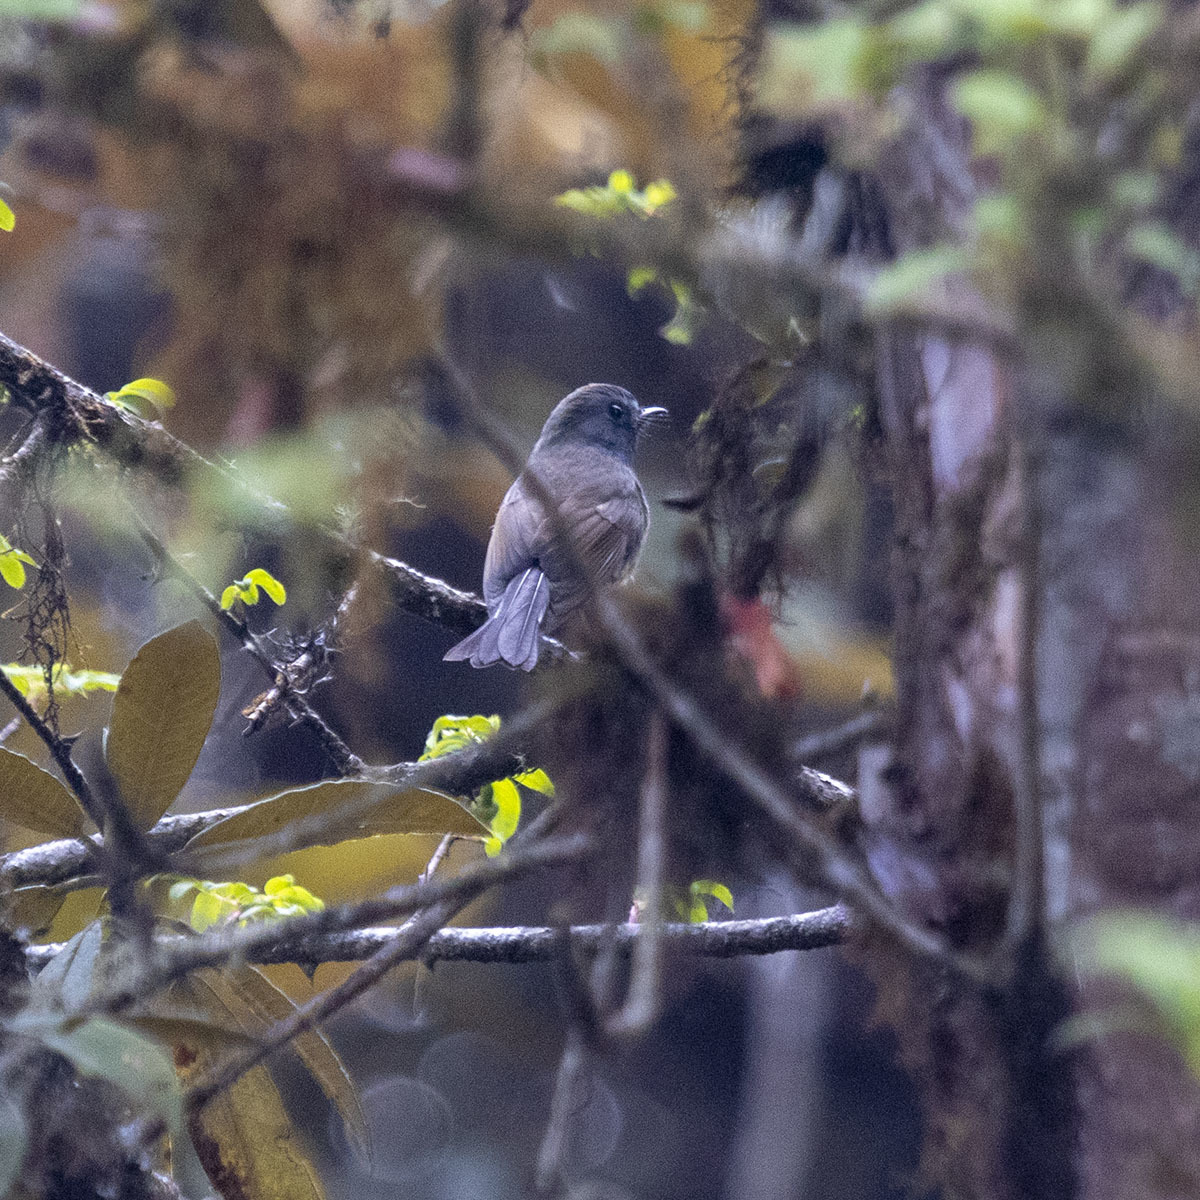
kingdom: Animalia
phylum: Chordata
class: Aves
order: Passeriformes
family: Muscicapidae
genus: Ficedula
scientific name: Ficedula strophiata
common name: Rufous-gorgeted flycatcher
